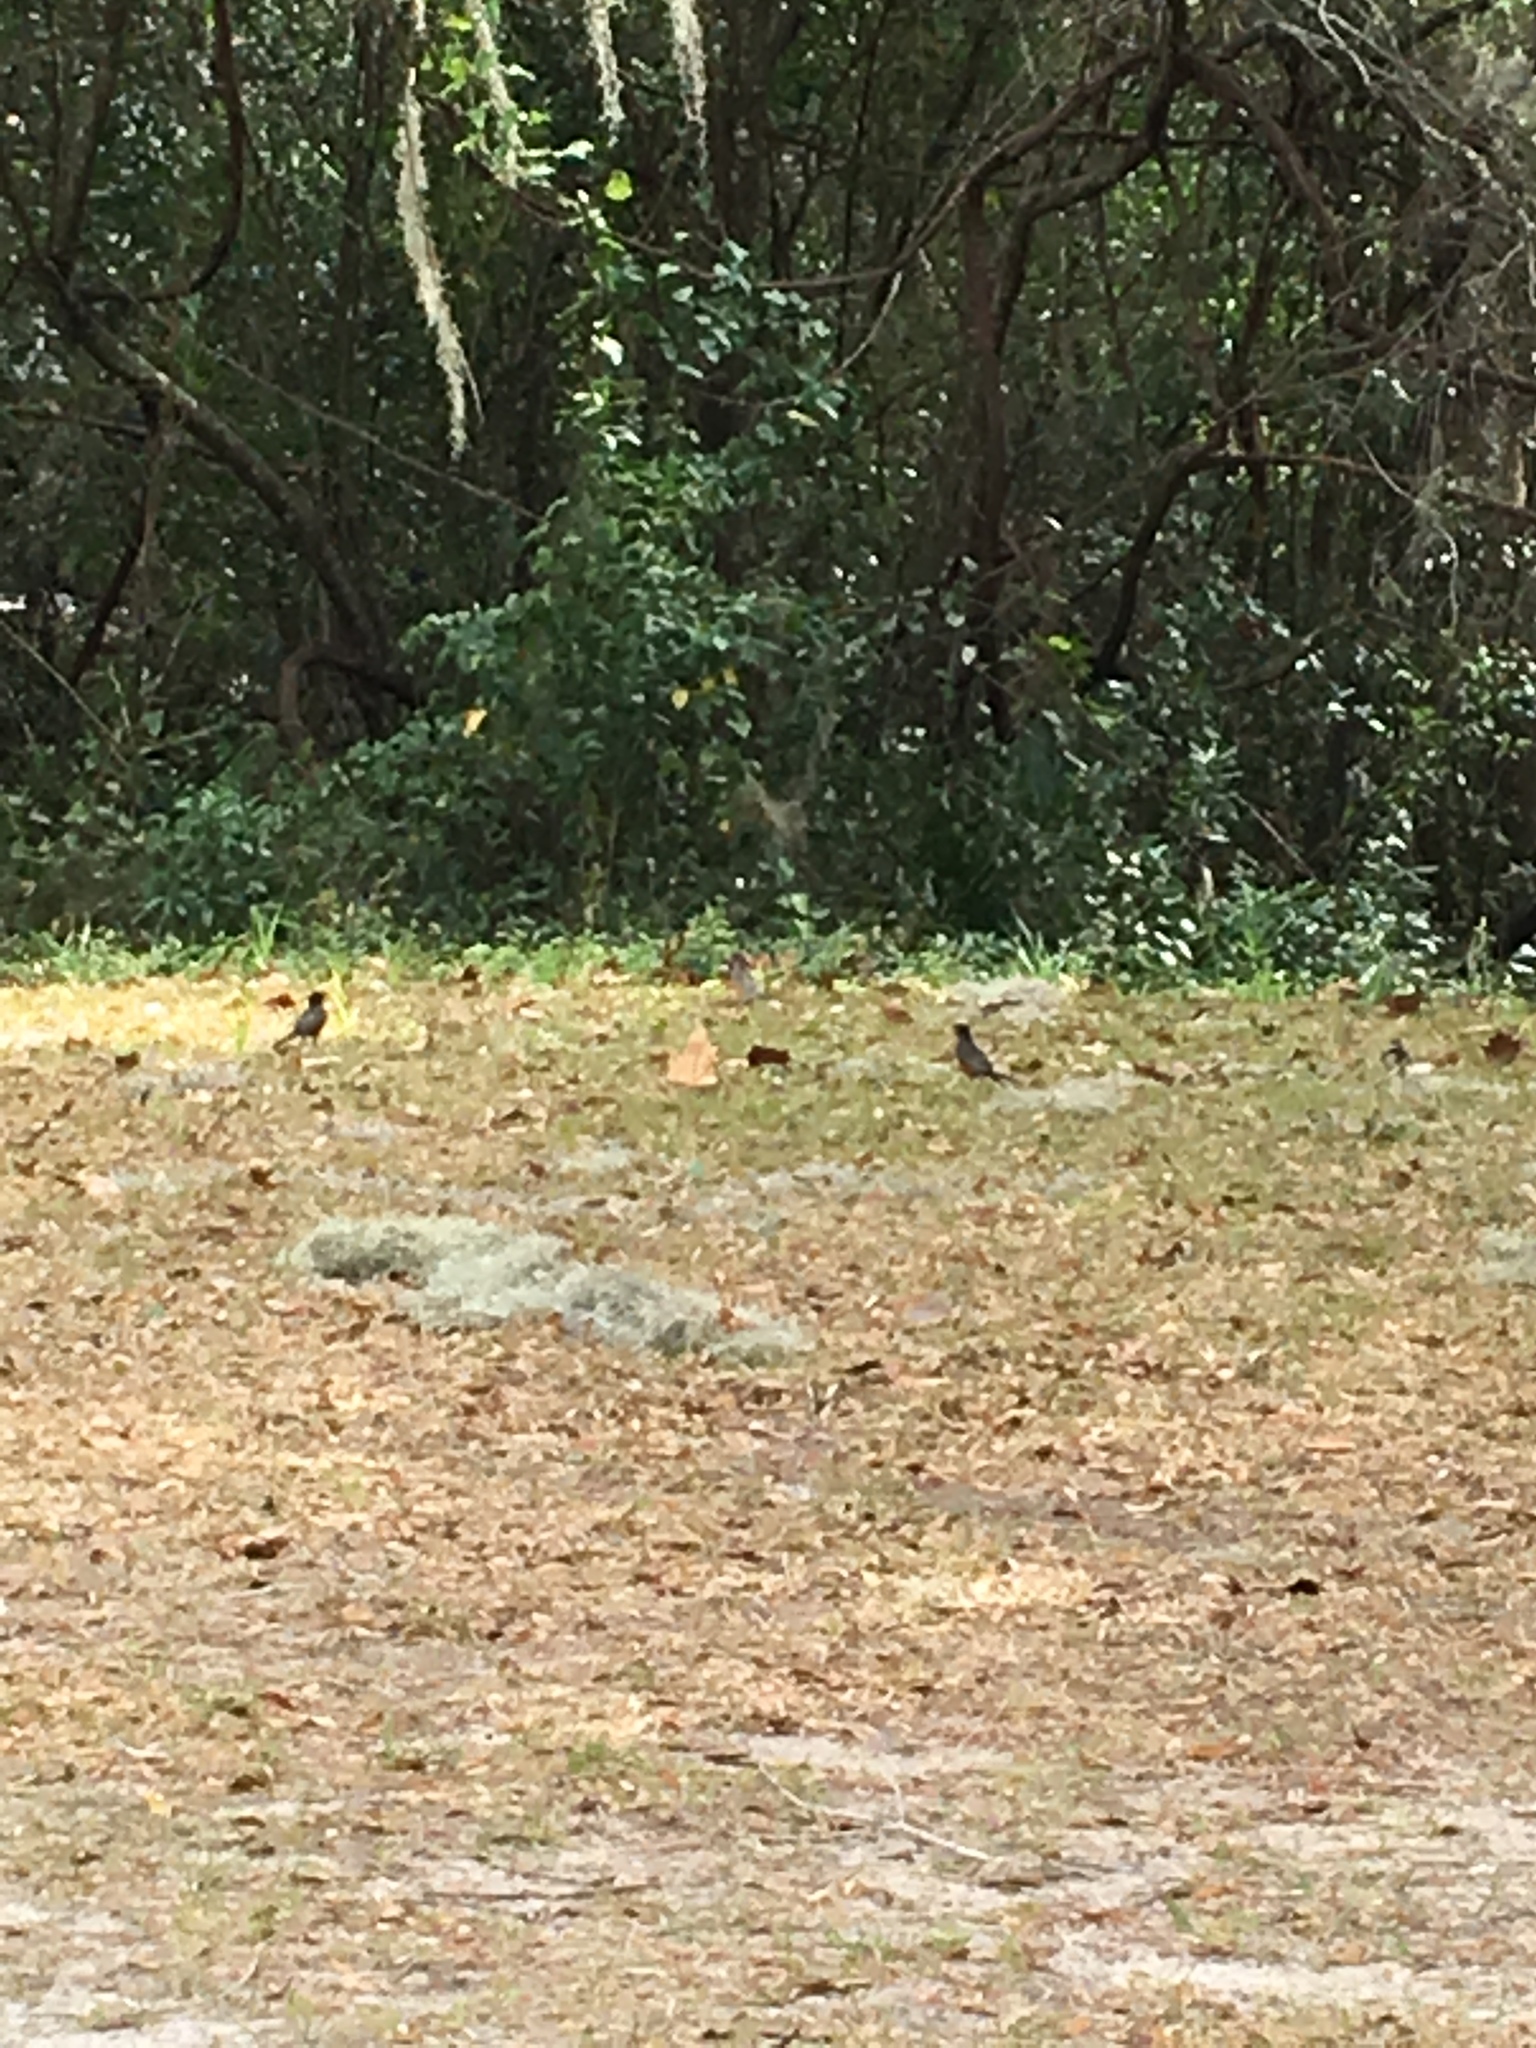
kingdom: Animalia
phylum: Chordata
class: Aves
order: Passeriformes
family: Turdidae
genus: Turdus
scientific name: Turdus migratorius
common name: American robin
